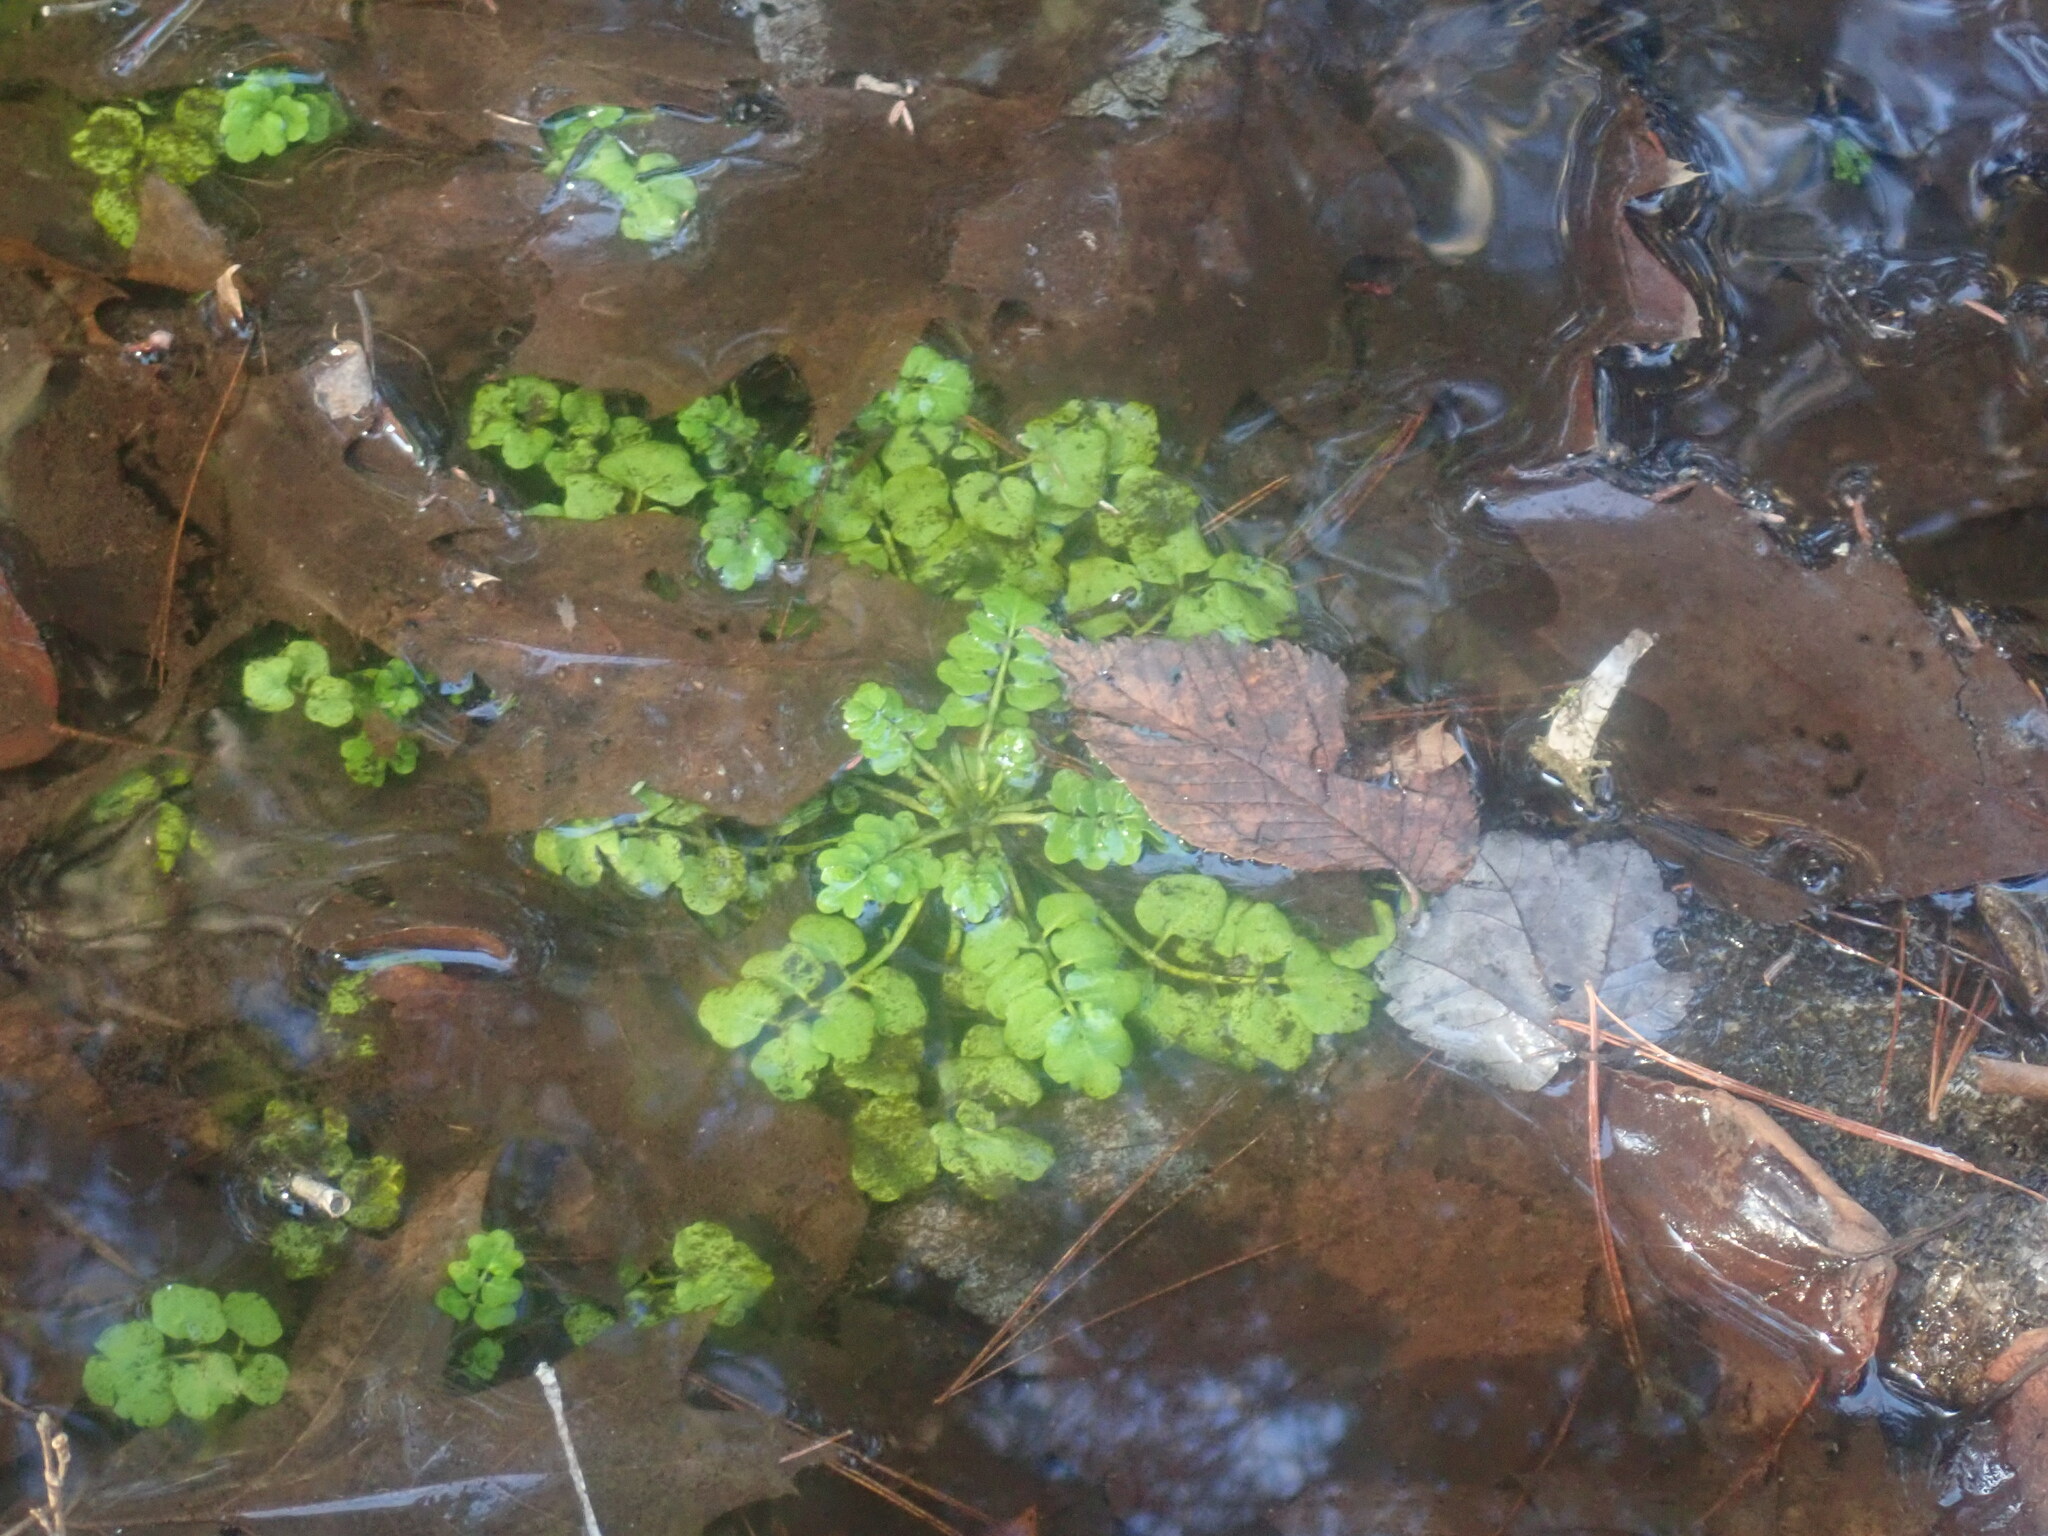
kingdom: Plantae
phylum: Tracheophyta
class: Magnoliopsida
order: Brassicales
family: Brassicaceae
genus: Cardamine
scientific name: Cardamine pensylvanica
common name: Pennsylvania bittercress
